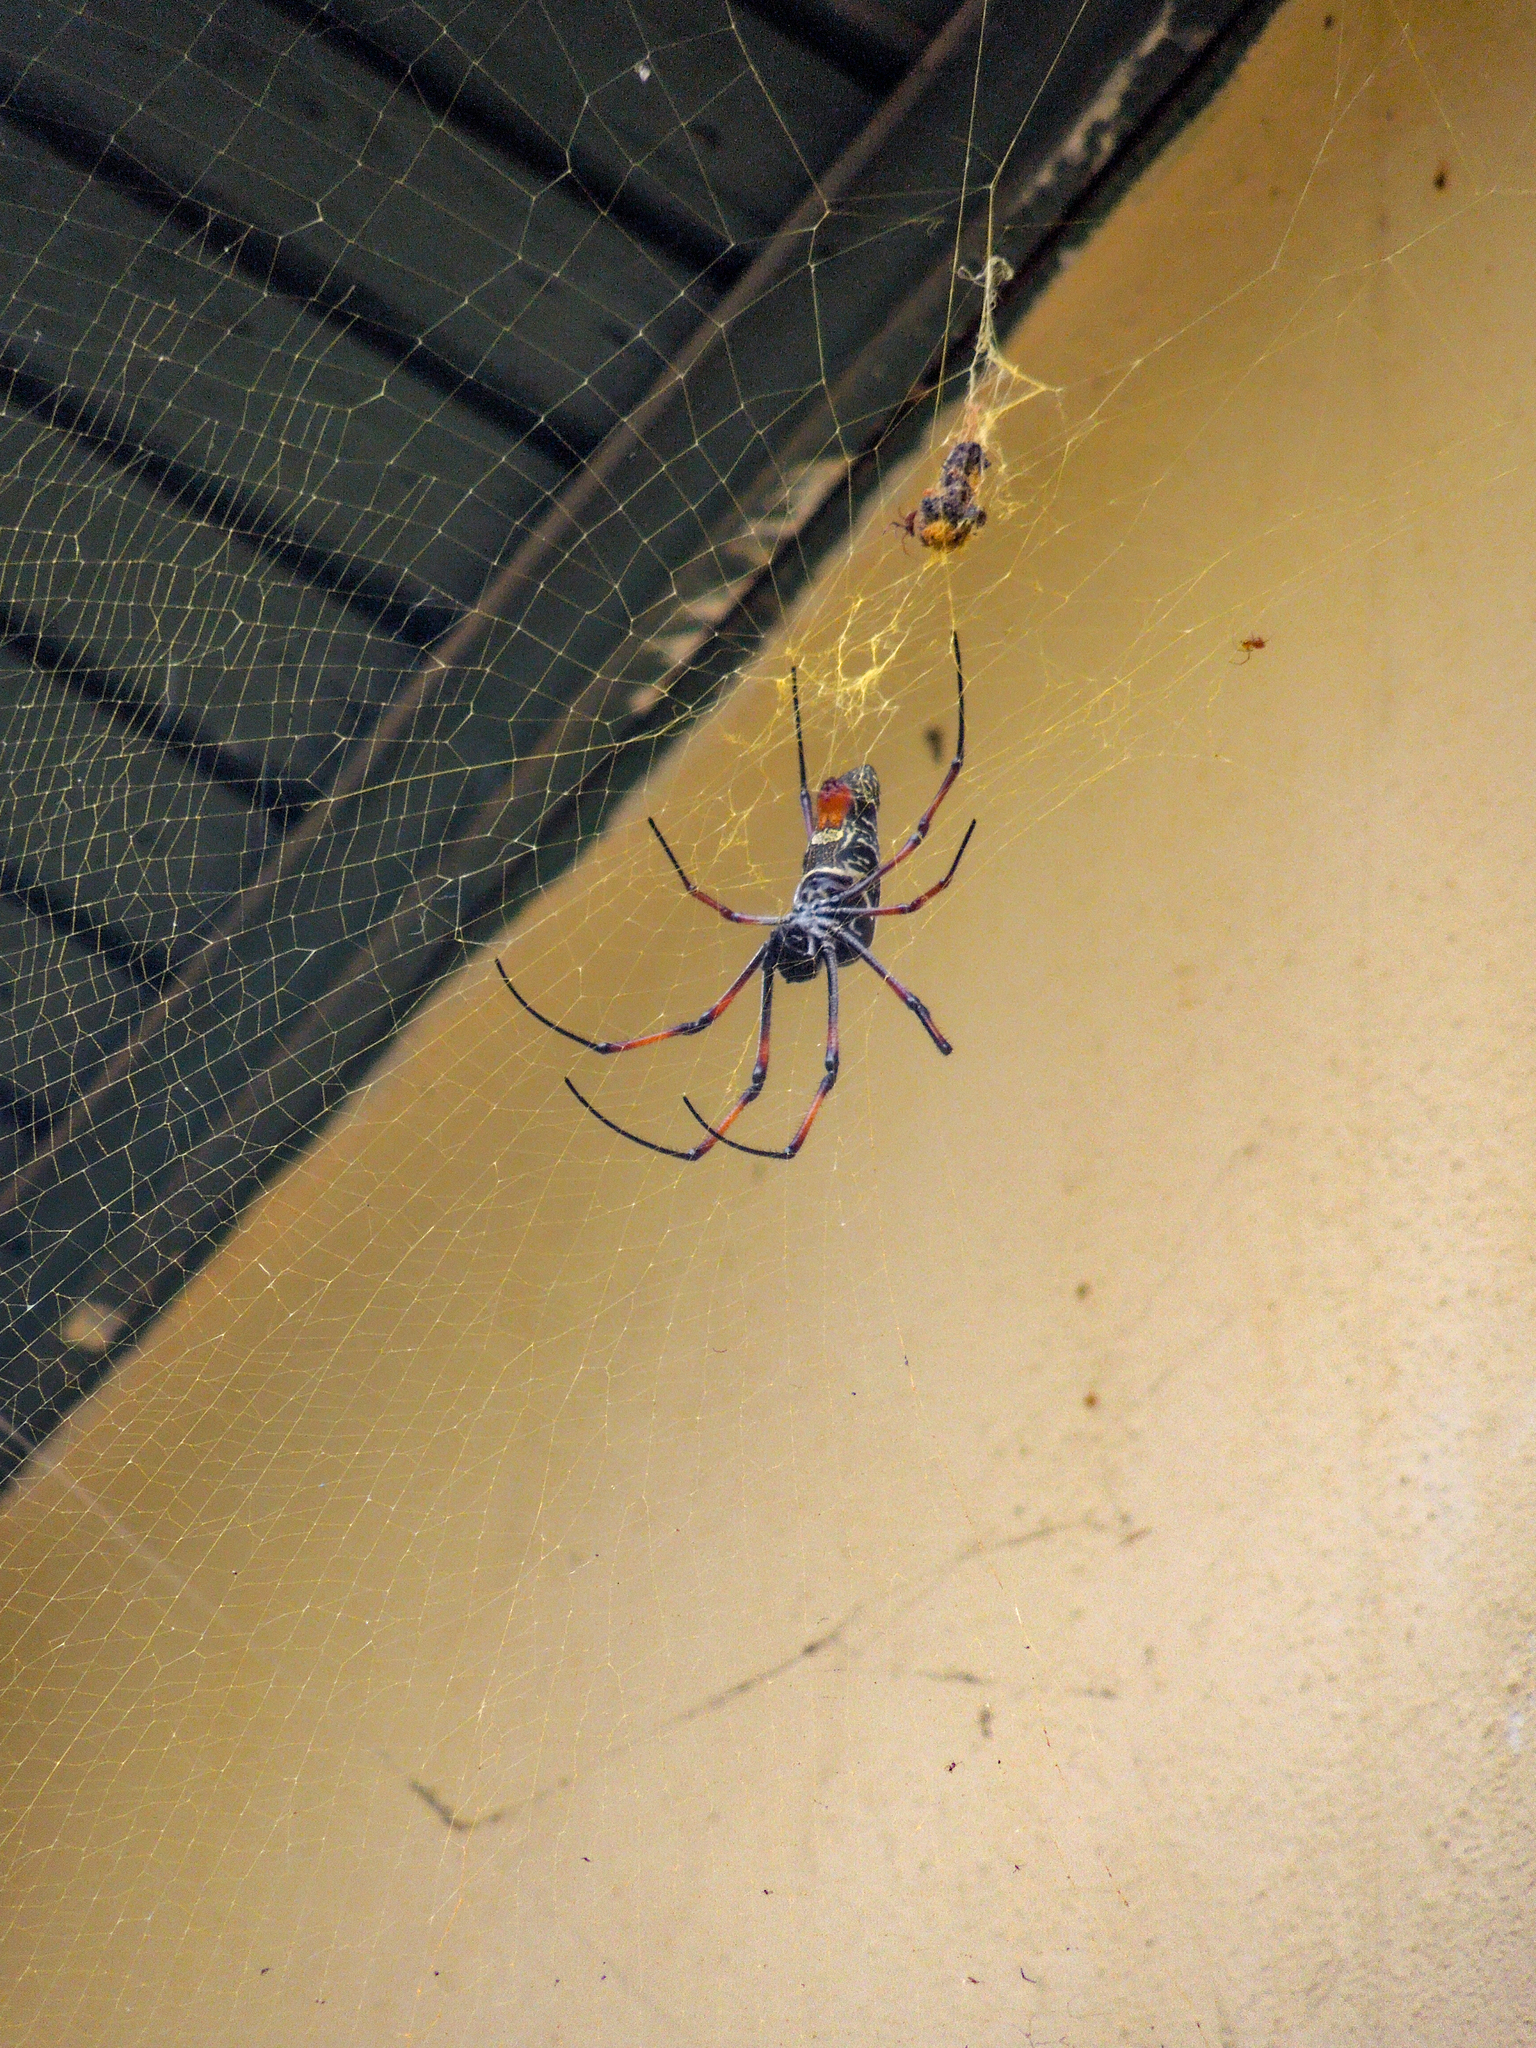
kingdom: Animalia
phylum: Arthropoda
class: Arachnida
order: Araneae
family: Araneidae
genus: Trichonephila
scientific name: Trichonephila inaurata
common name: Red-legged golden orb weaver
